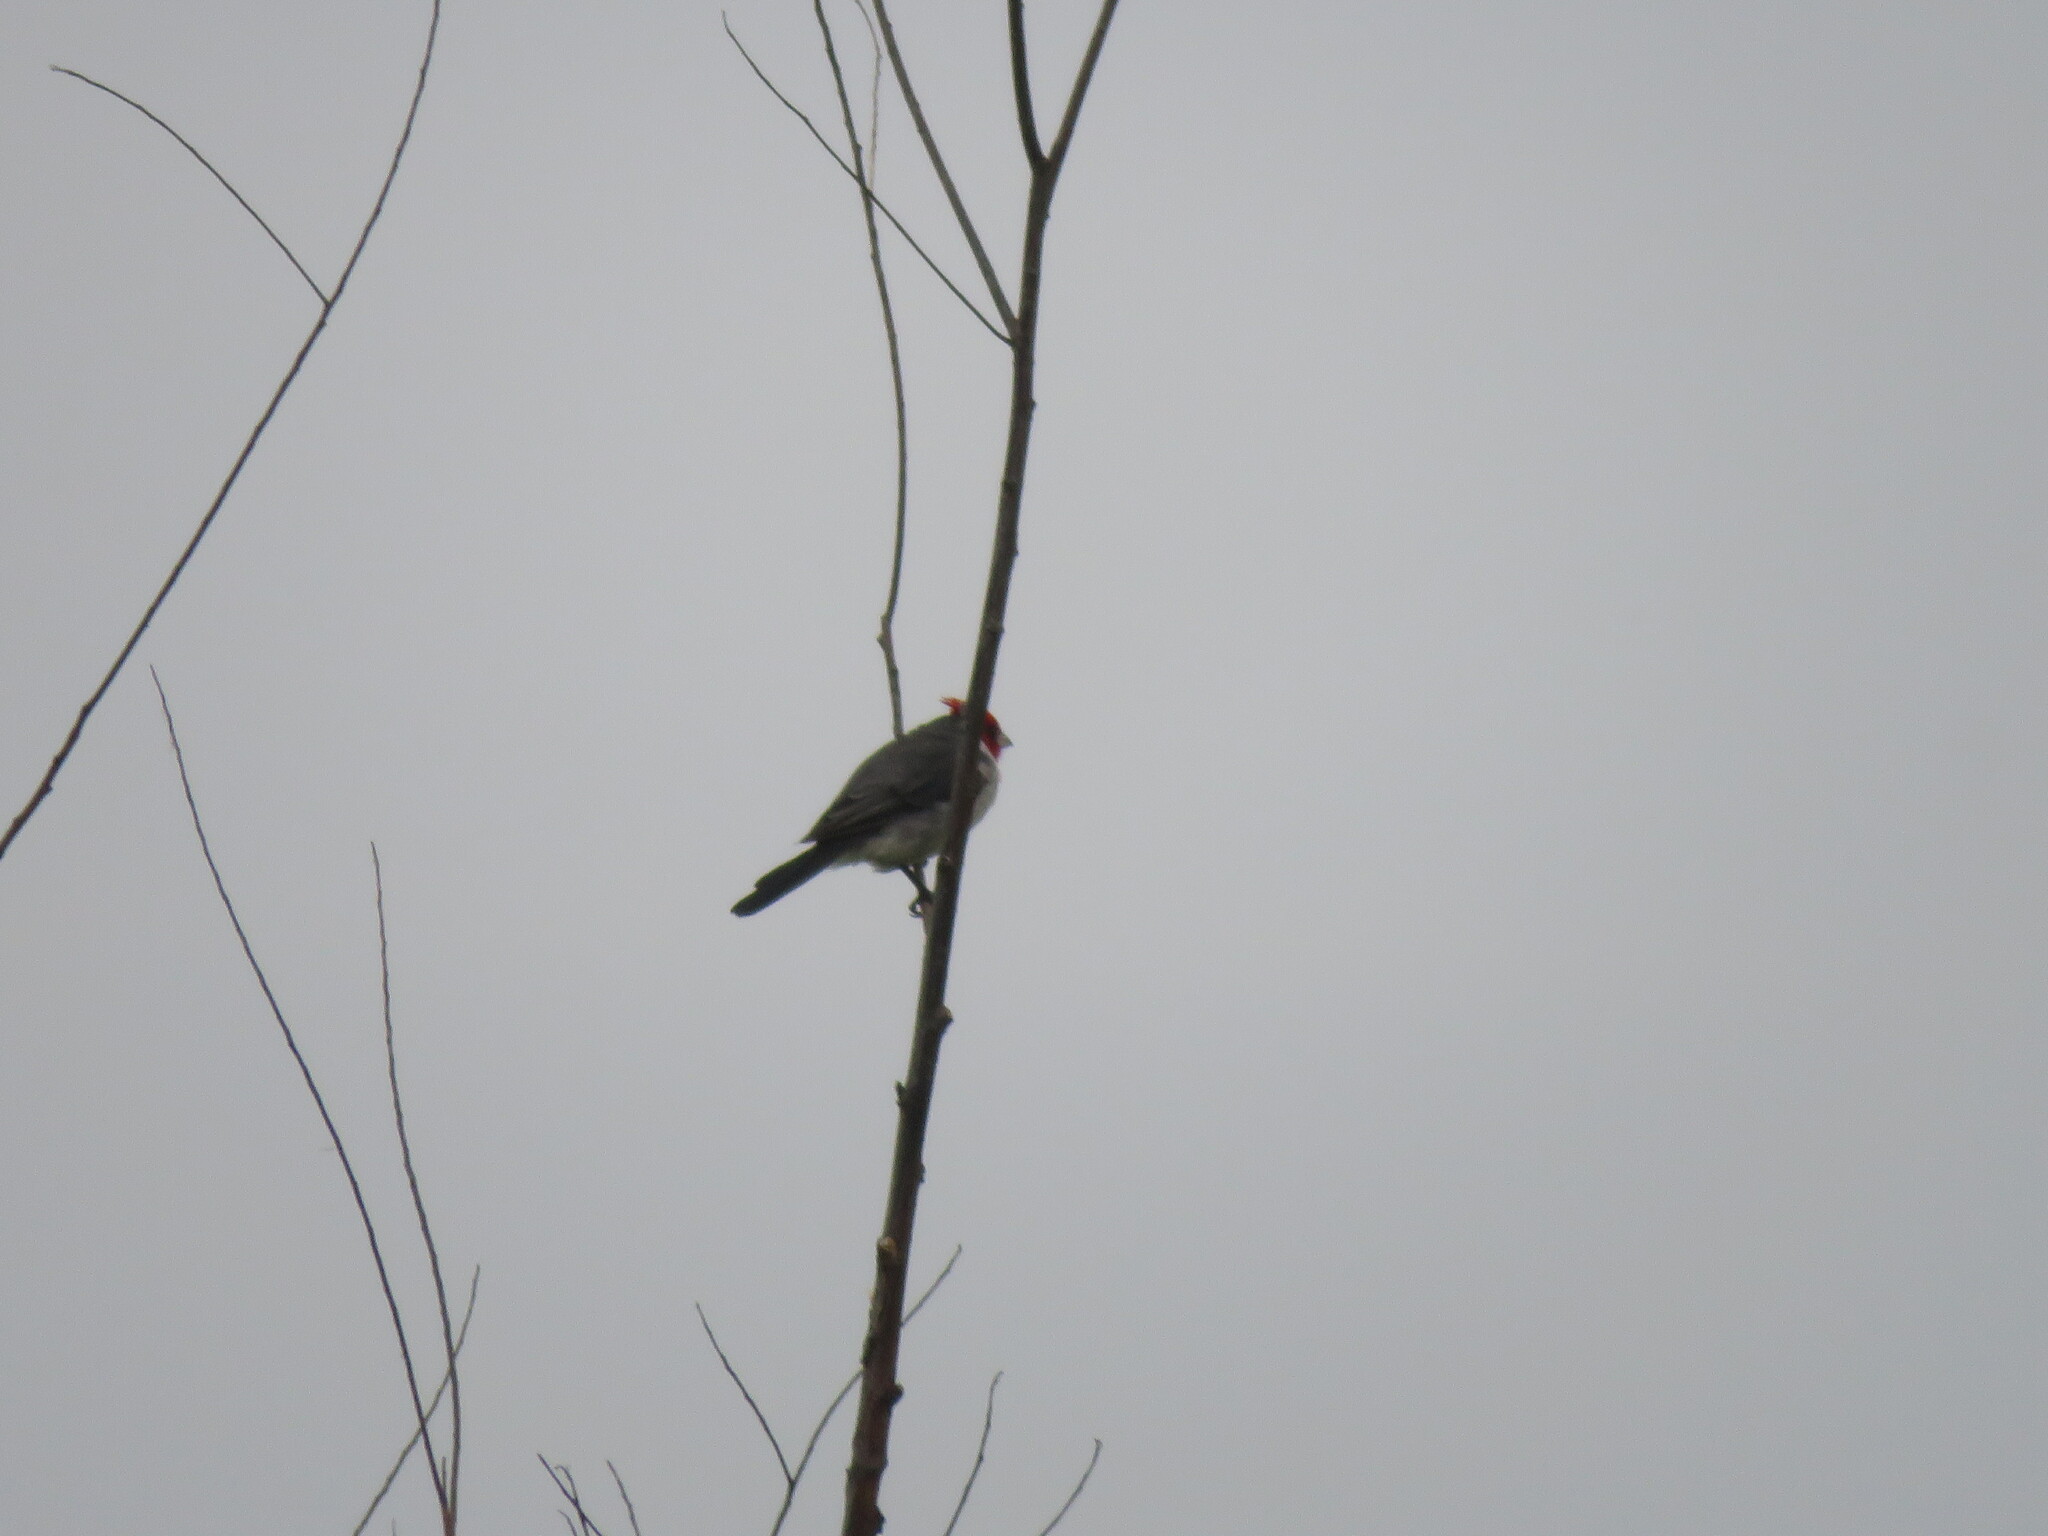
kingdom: Animalia
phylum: Chordata
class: Aves
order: Passeriformes
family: Thraupidae
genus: Paroaria
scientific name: Paroaria coronata
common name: Red-crested cardinal
